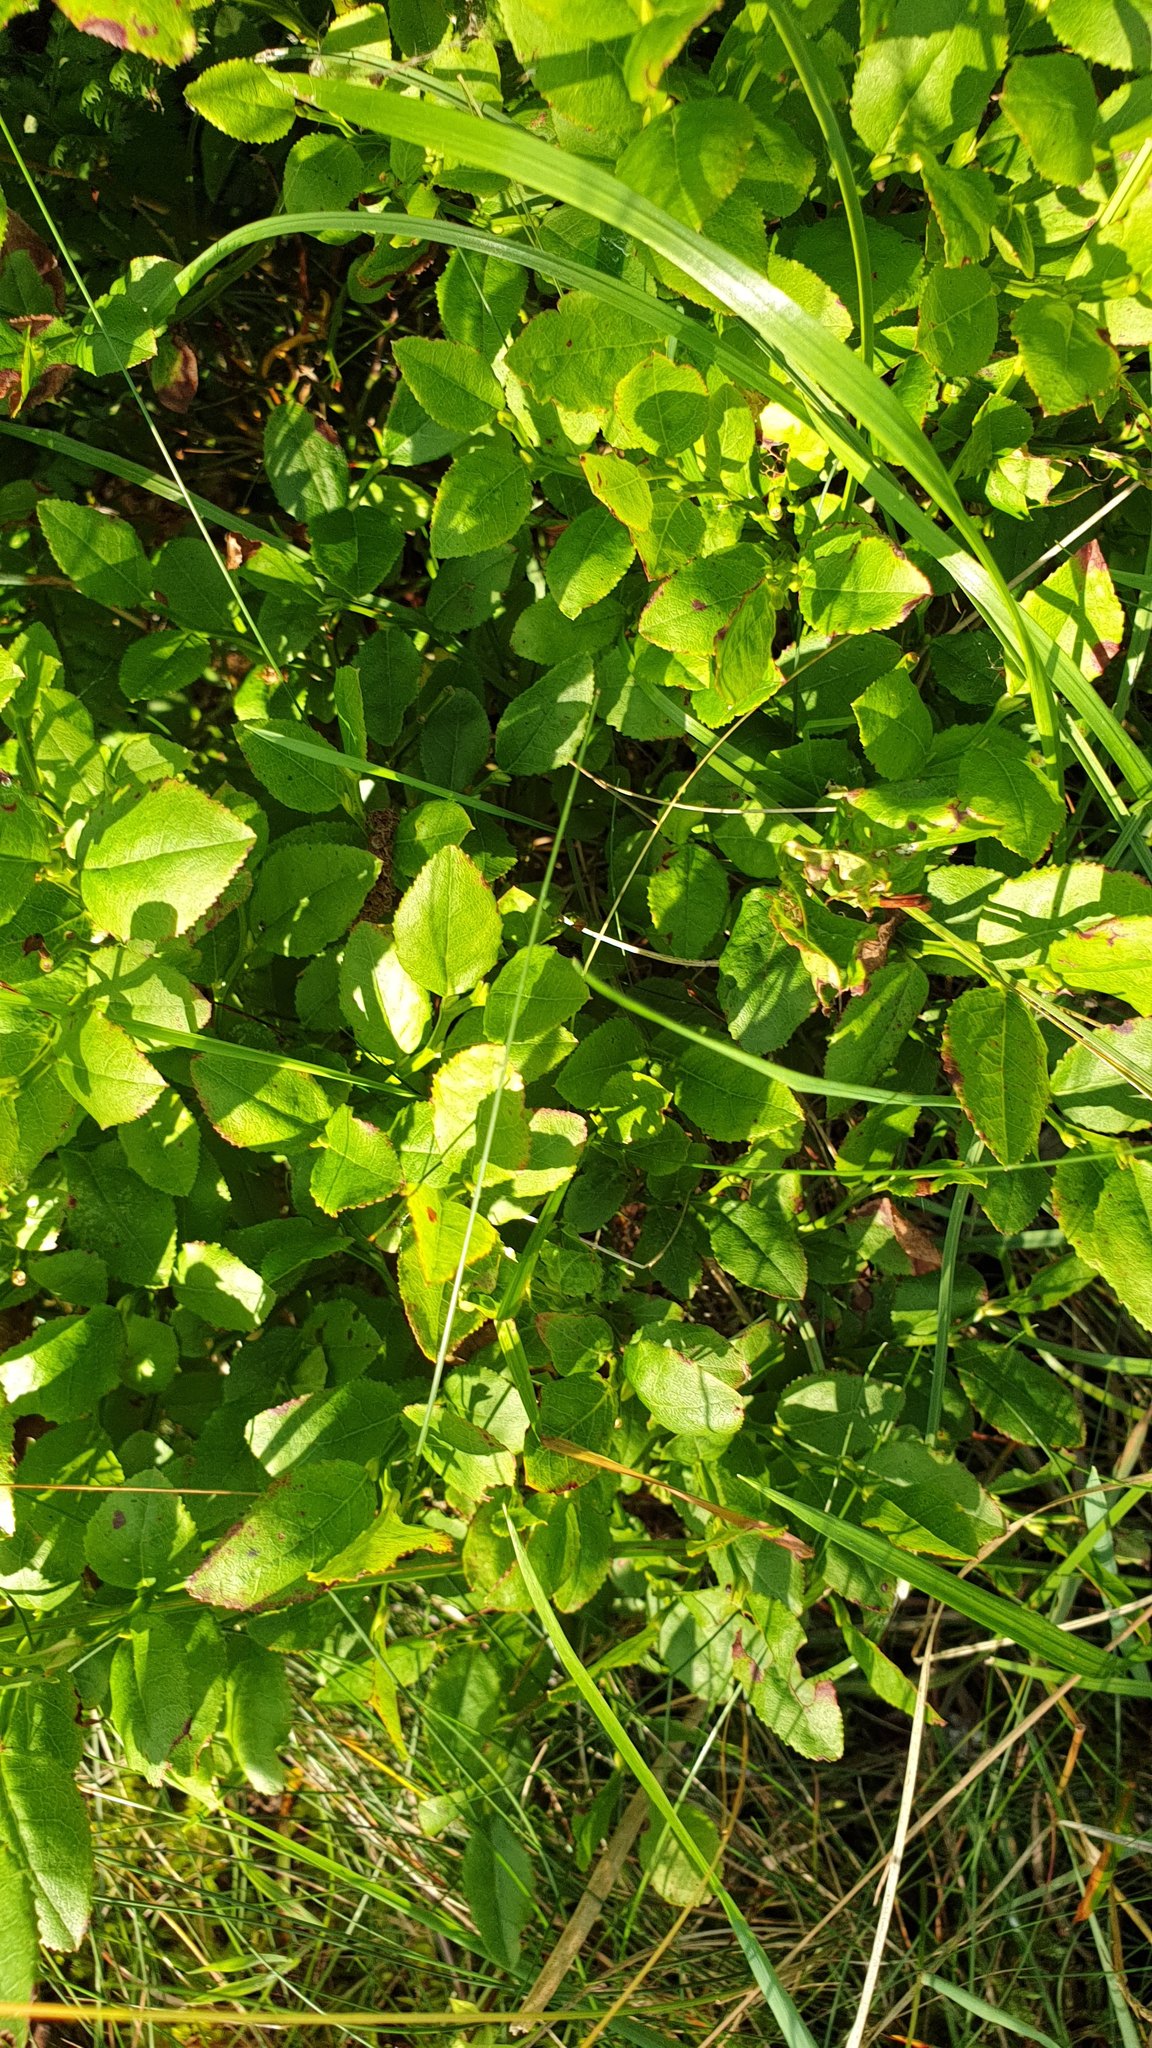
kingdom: Plantae
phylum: Tracheophyta
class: Magnoliopsida
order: Ericales
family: Ericaceae
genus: Vaccinium
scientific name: Vaccinium myrtillus
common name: Bilberry
